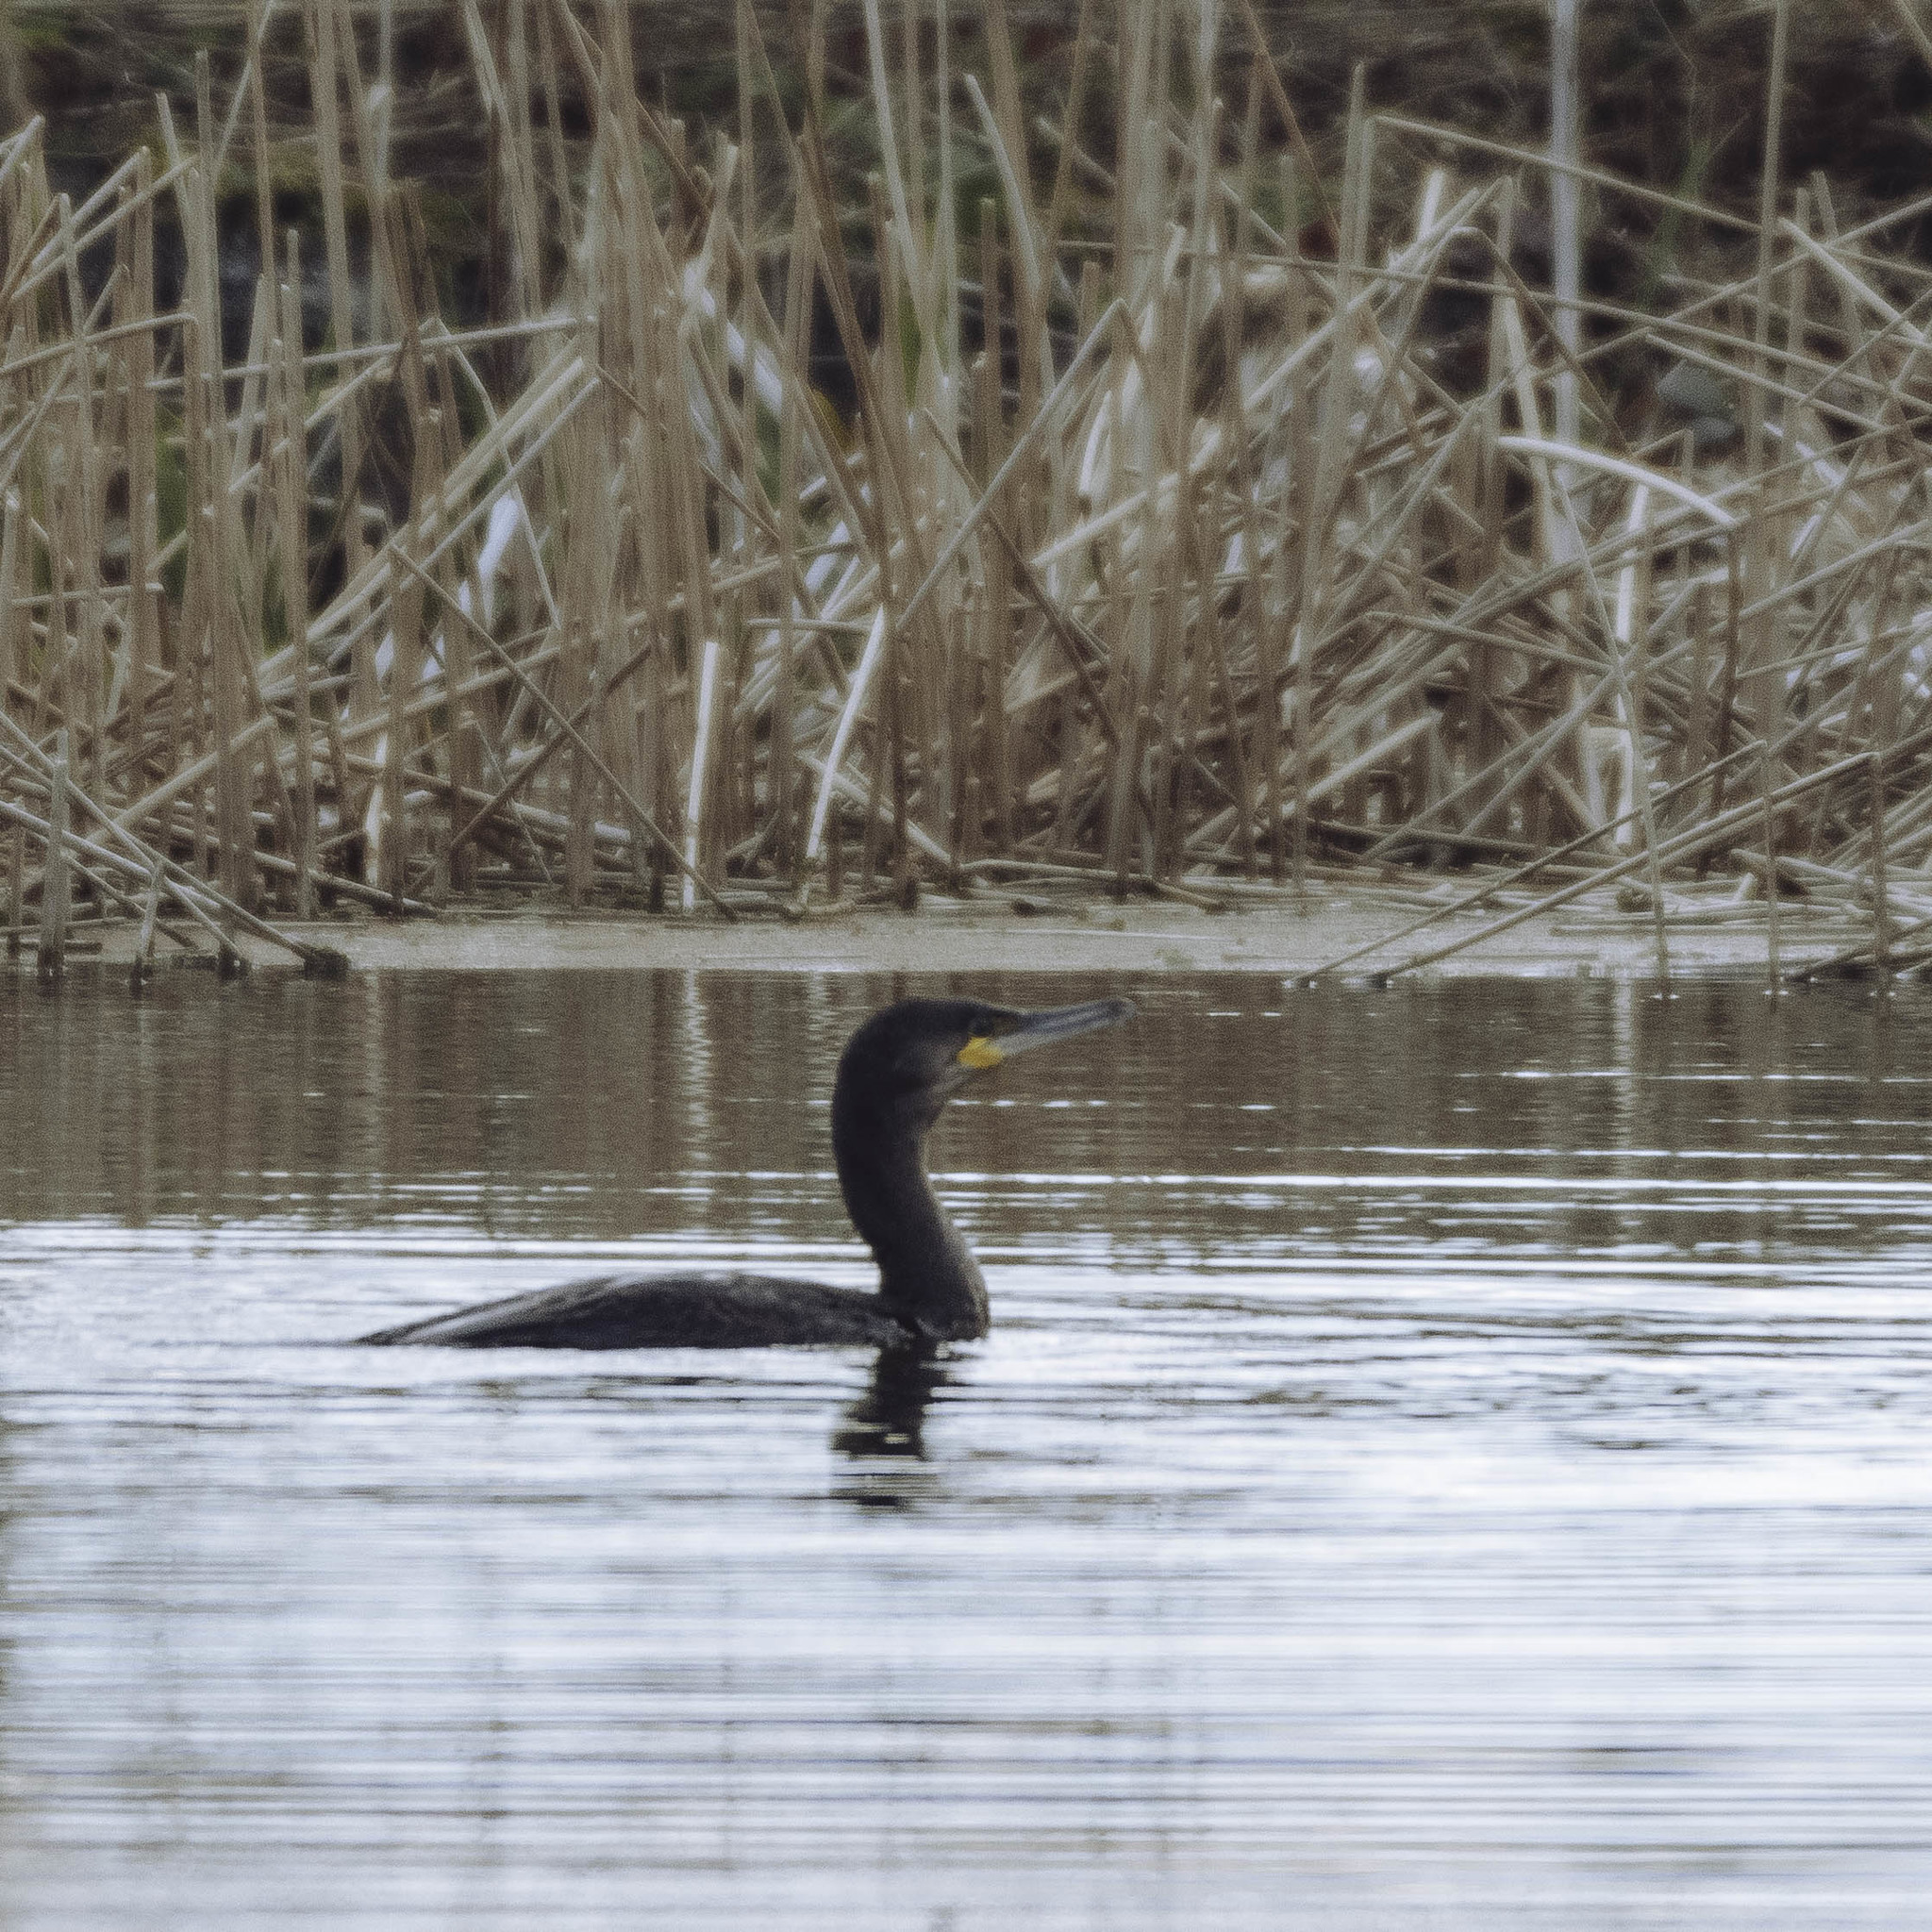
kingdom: Animalia
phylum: Chordata
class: Aves
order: Suliformes
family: Phalacrocoracidae
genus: Phalacrocorax
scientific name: Phalacrocorax carbo
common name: Great cormorant
